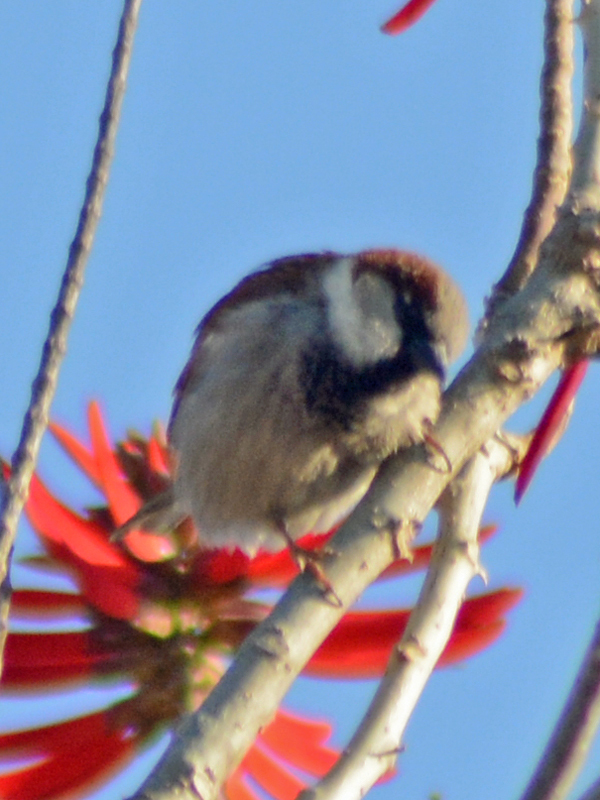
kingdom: Animalia
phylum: Chordata
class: Aves
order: Passeriformes
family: Passeridae
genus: Passer
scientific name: Passer domesticus
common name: House sparrow
